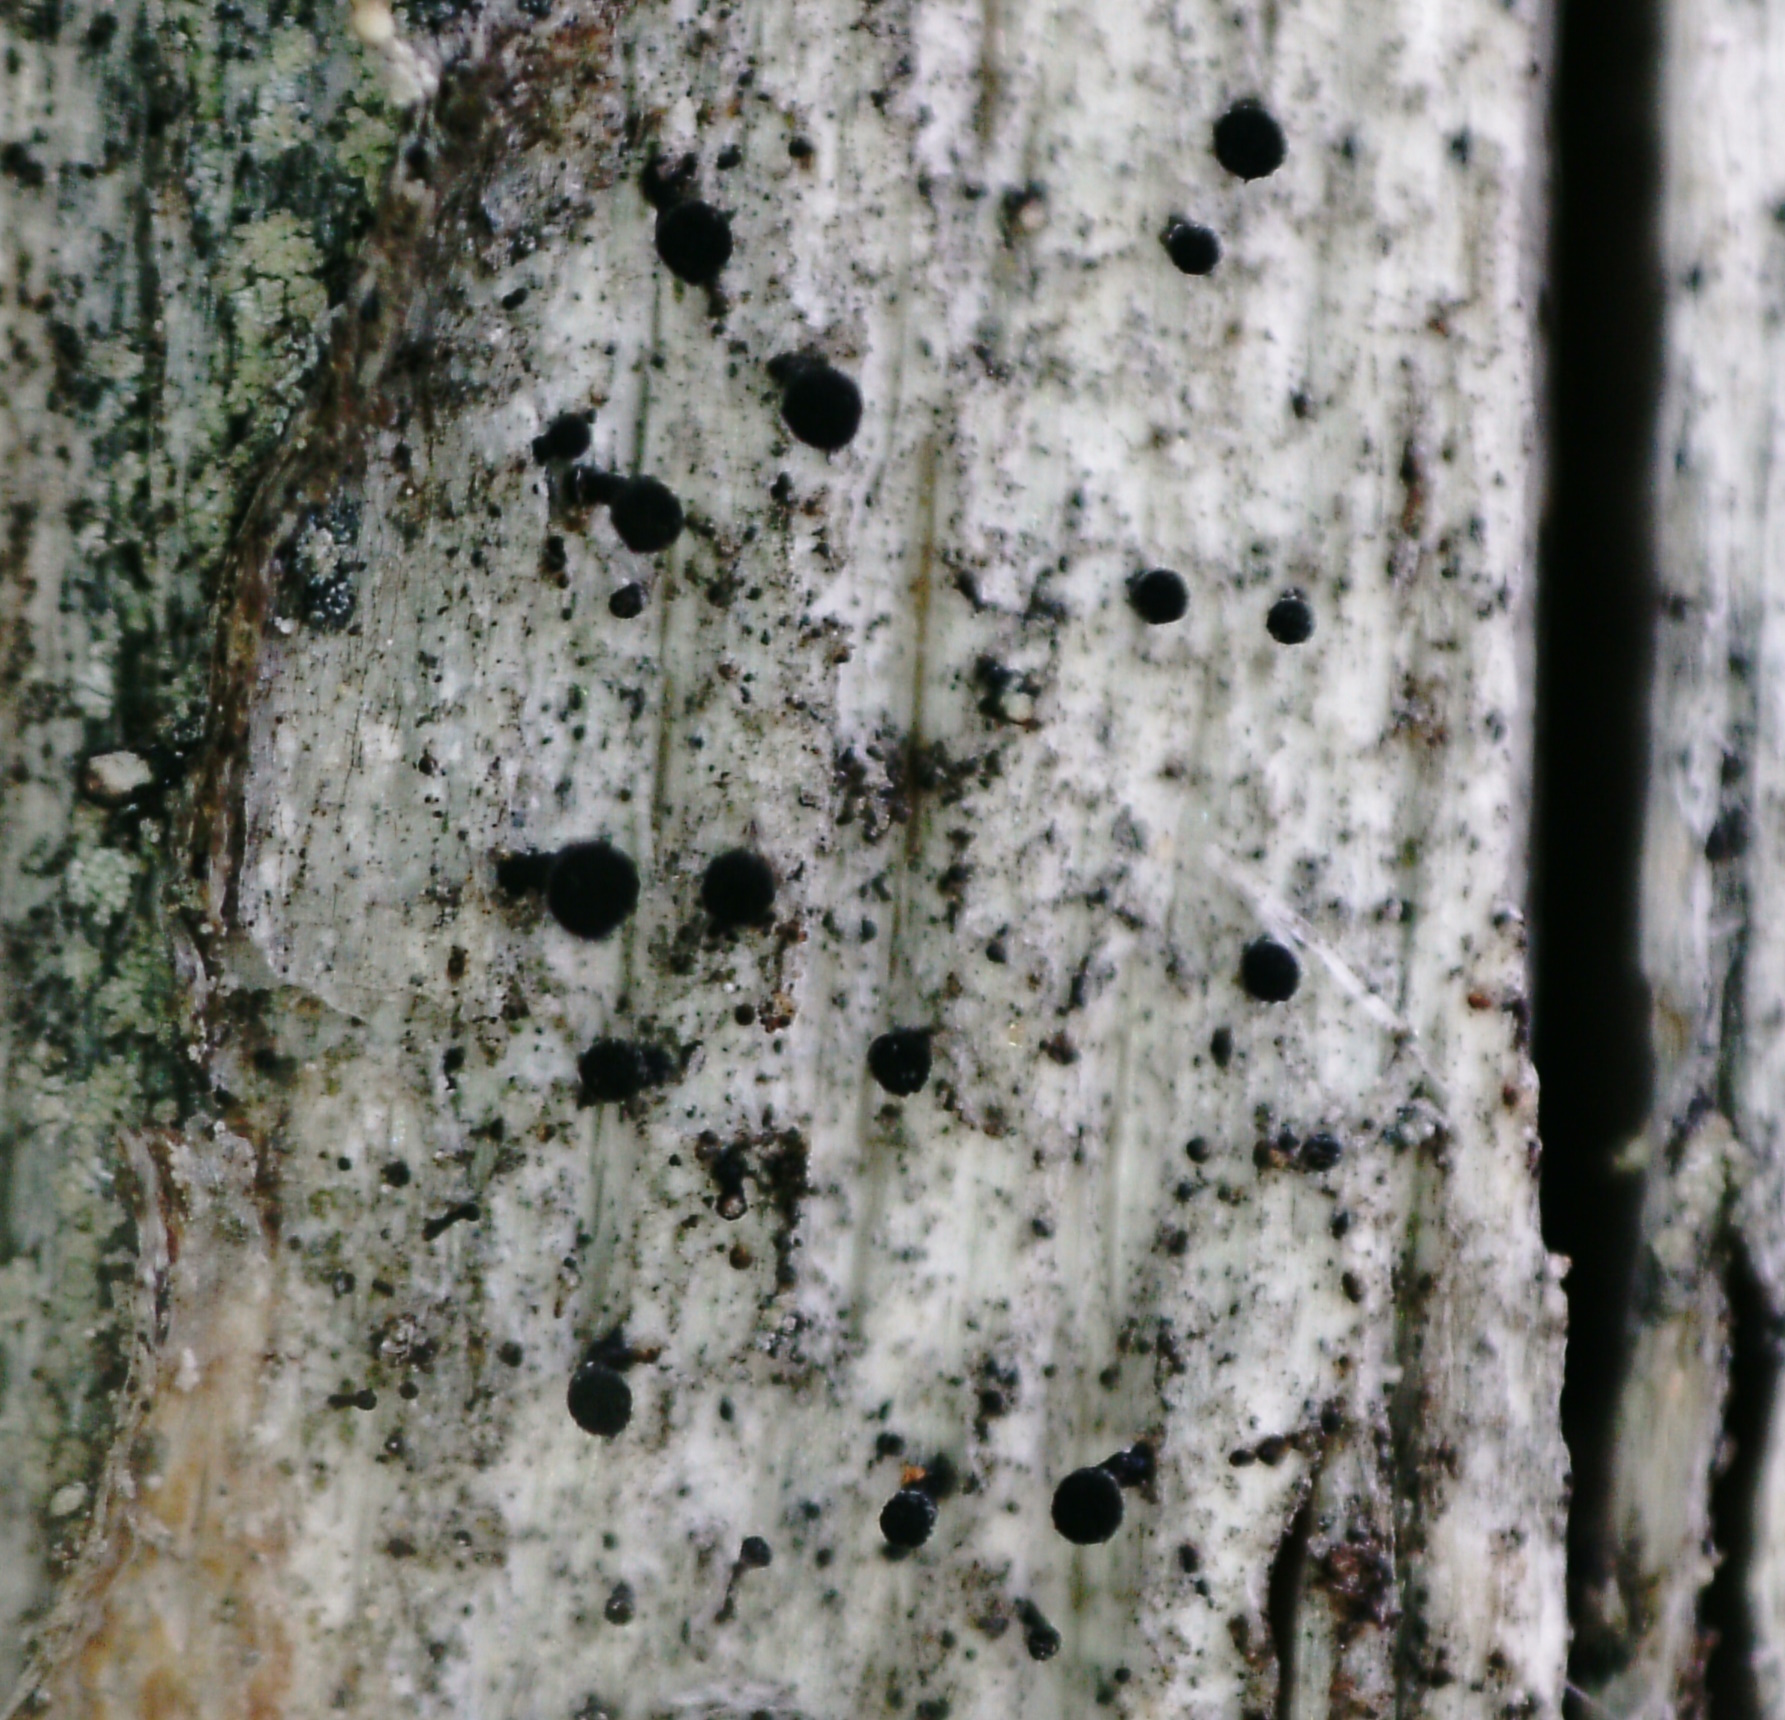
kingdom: Fungi
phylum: Ascomycota
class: Lecanoromycetes
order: Caliciales
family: Caliciaceae
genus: Calicium
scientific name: Calicium glaucellum
